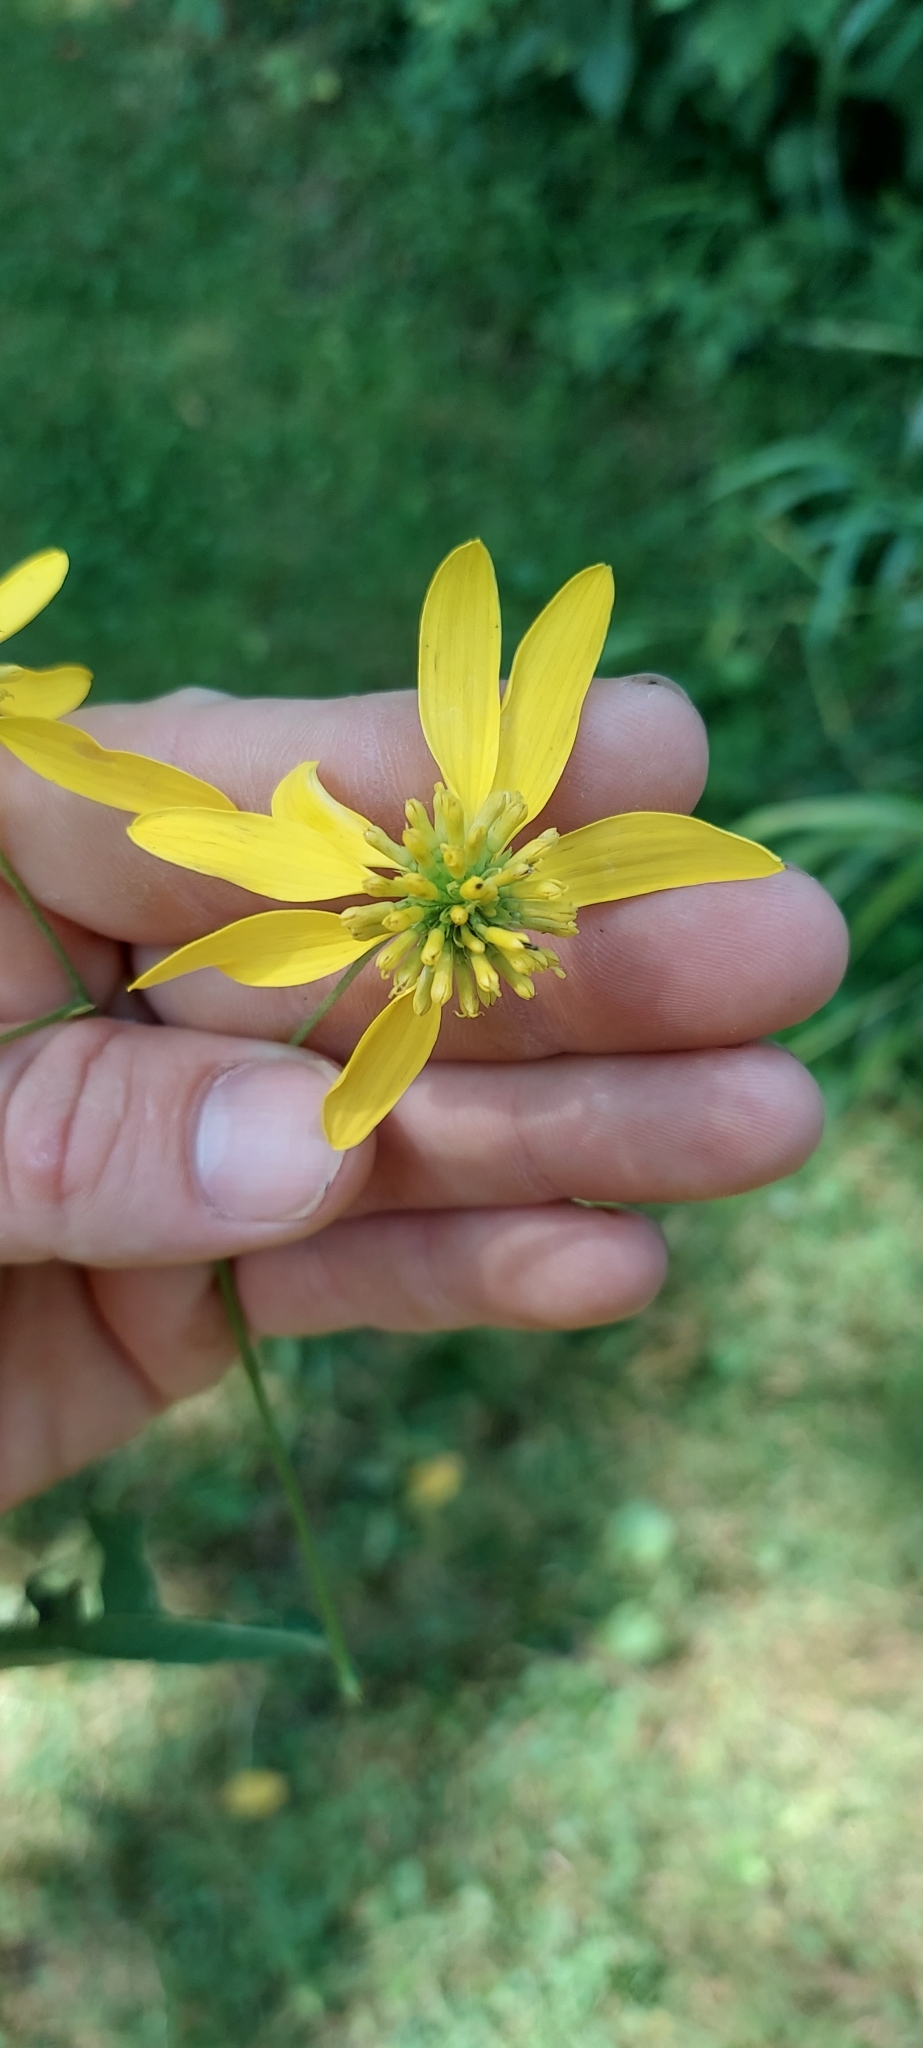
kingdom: Plantae
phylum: Tracheophyta
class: Magnoliopsida
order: Asterales
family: Asteraceae
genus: Verbesina
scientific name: Verbesina alternifolia
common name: Wingstem
